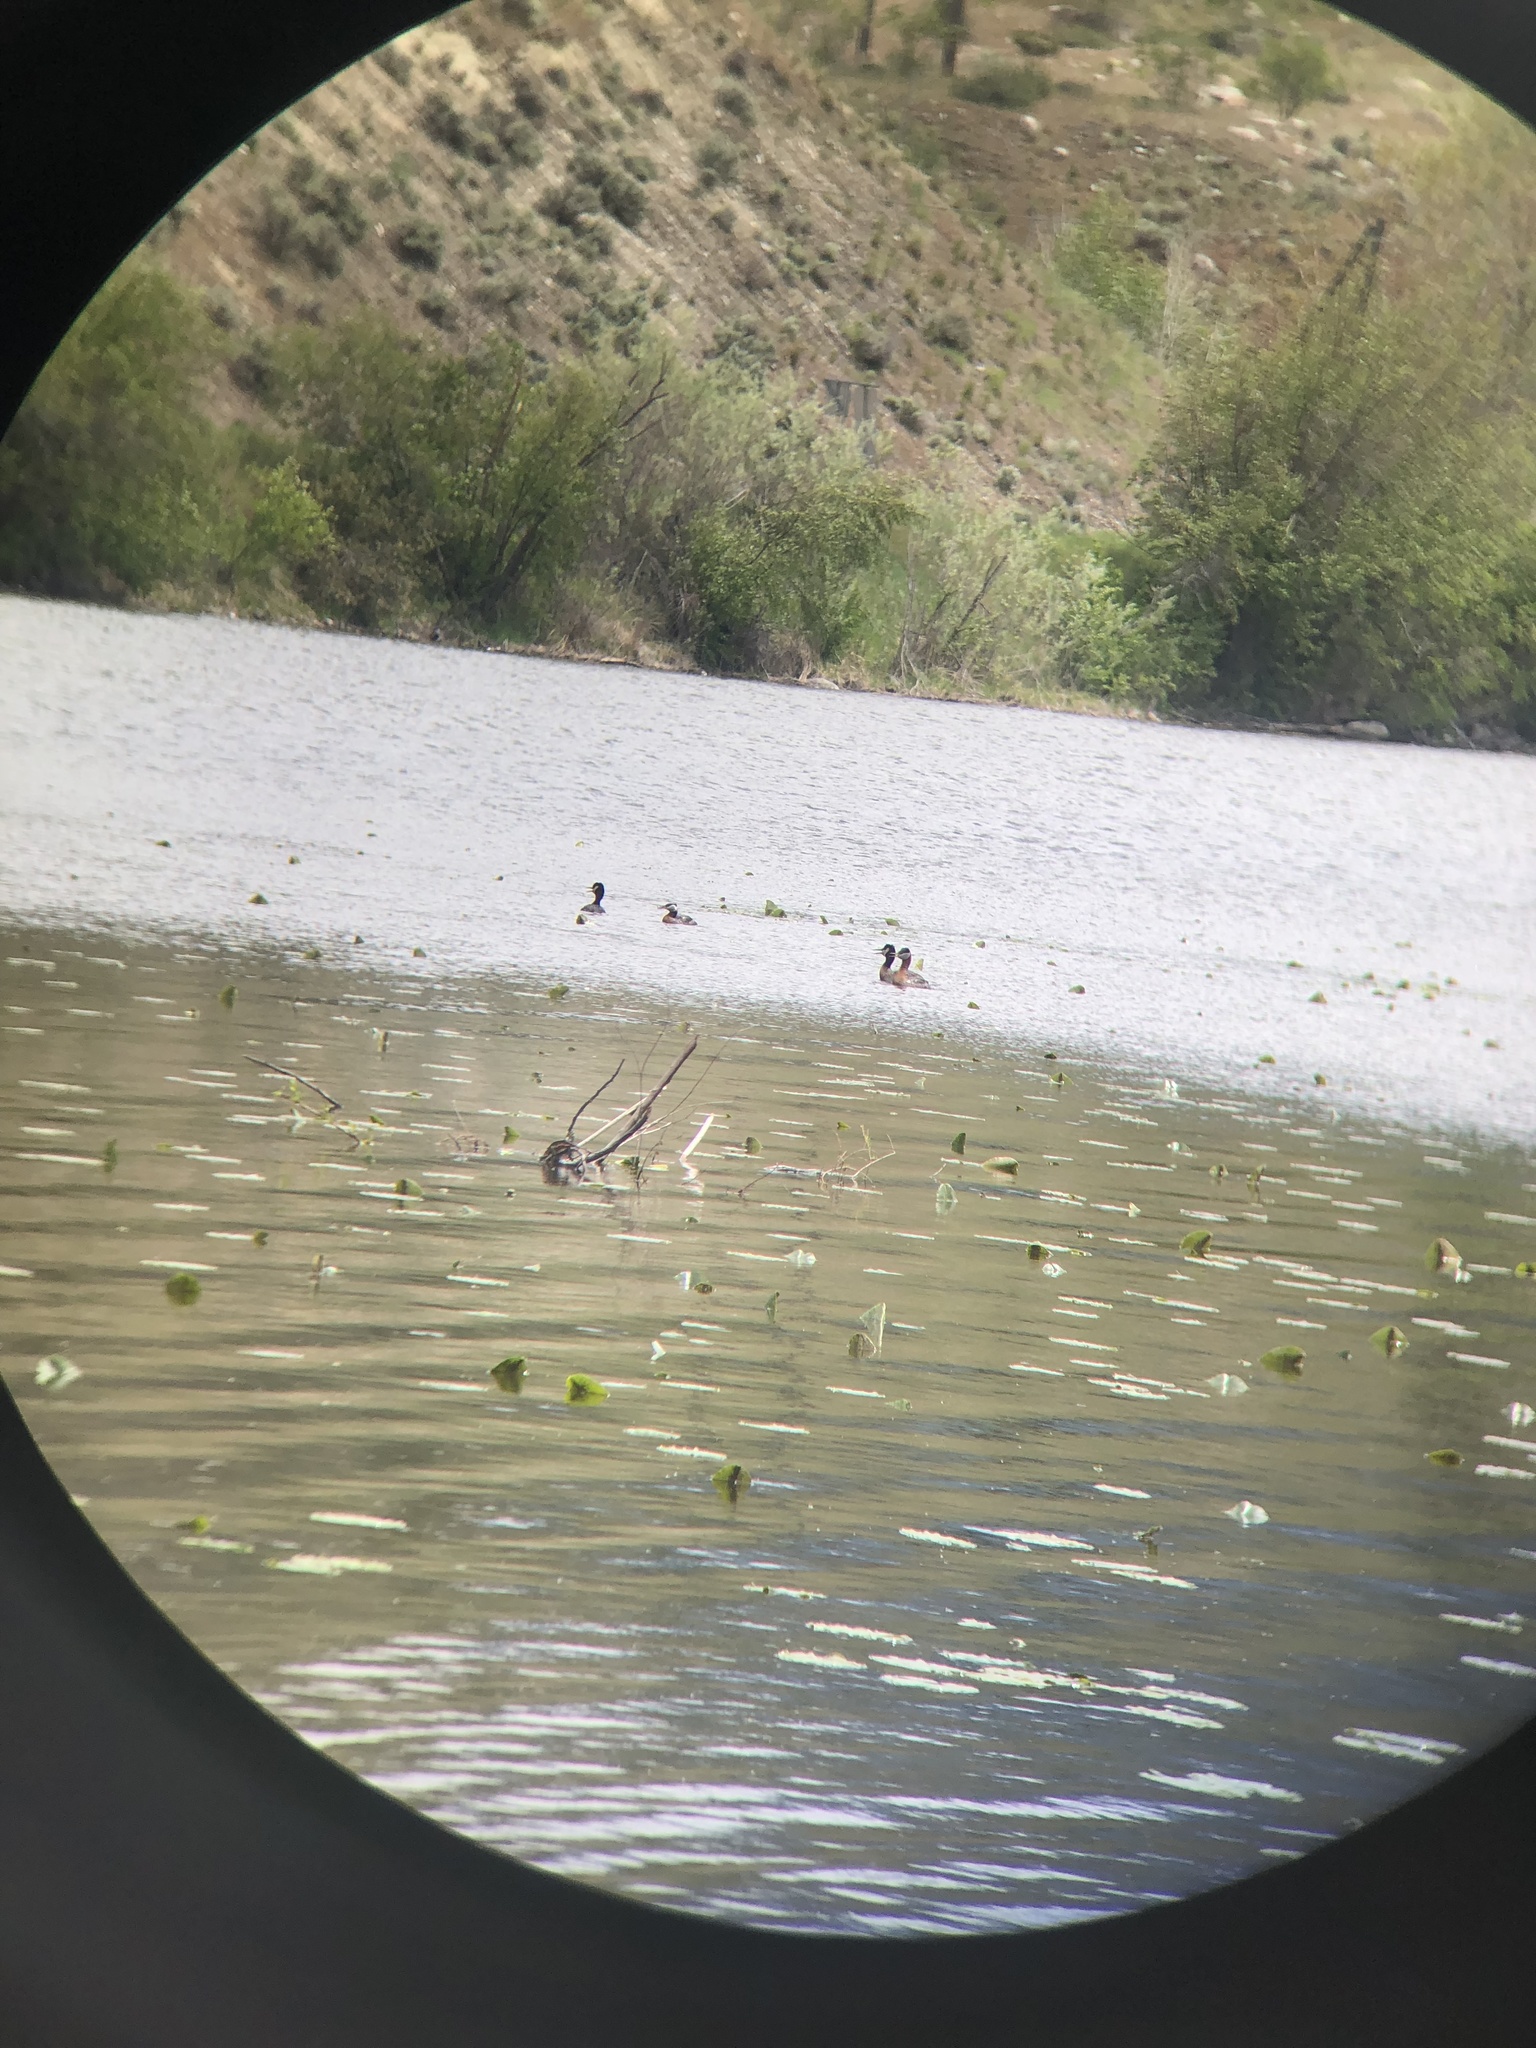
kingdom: Animalia
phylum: Chordata
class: Aves
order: Podicipediformes
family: Podicipedidae
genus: Podiceps
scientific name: Podiceps grisegena
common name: Red-necked grebe
